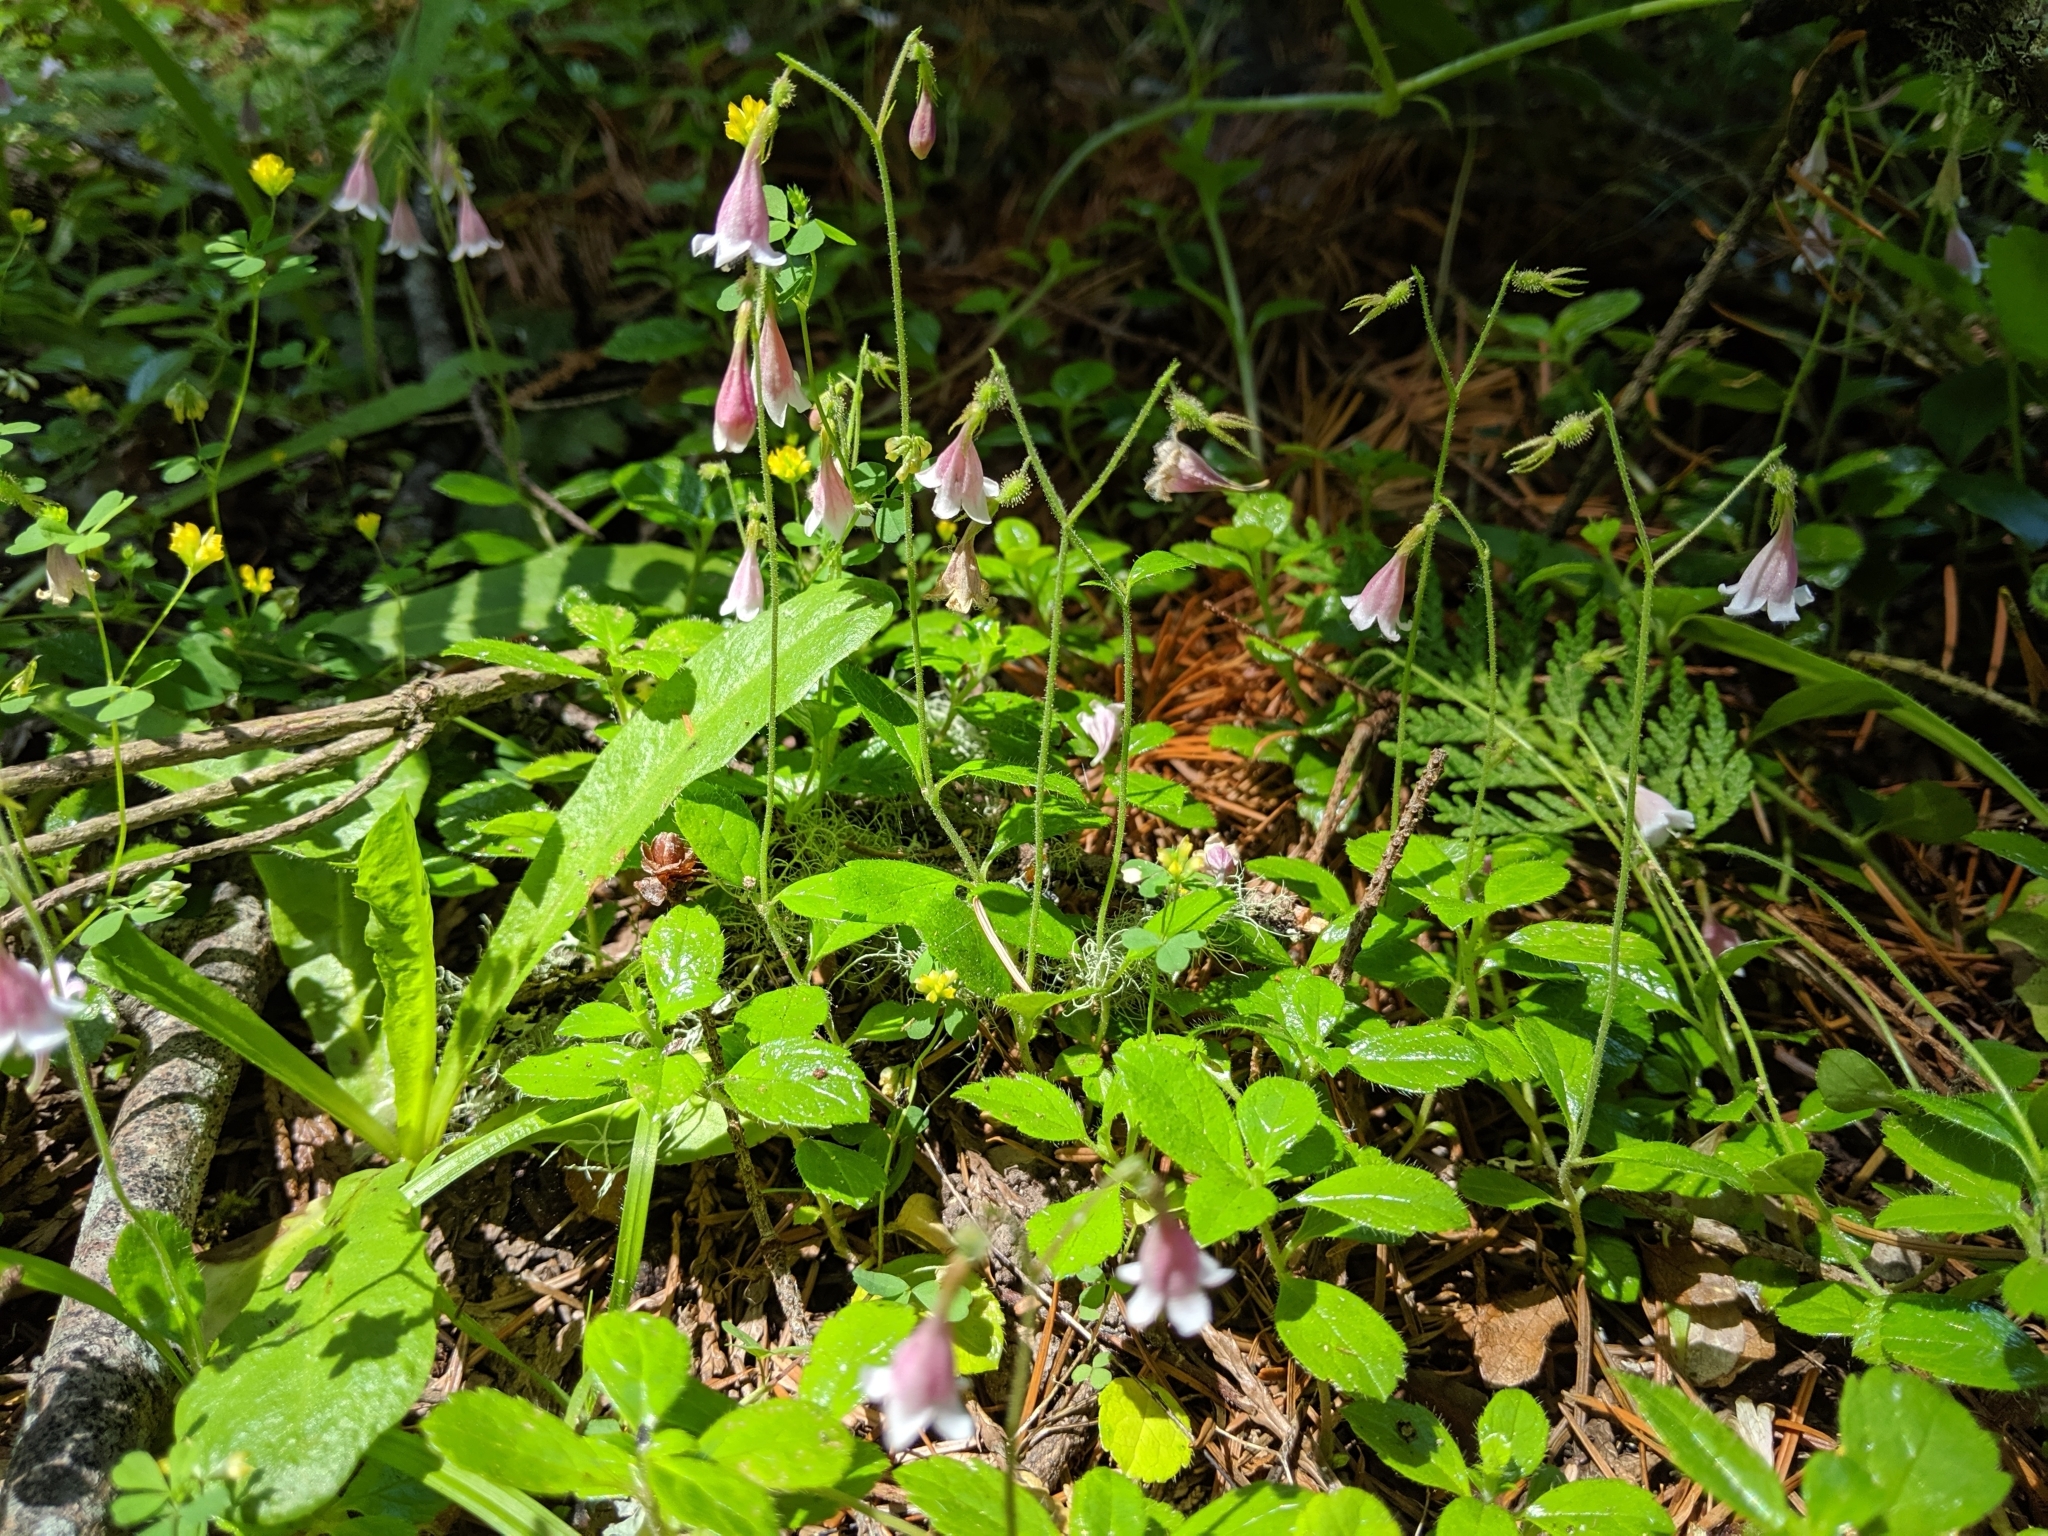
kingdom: Plantae
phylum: Tracheophyta
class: Magnoliopsida
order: Dipsacales
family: Caprifoliaceae
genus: Linnaea
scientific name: Linnaea borealis
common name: Twinflower
